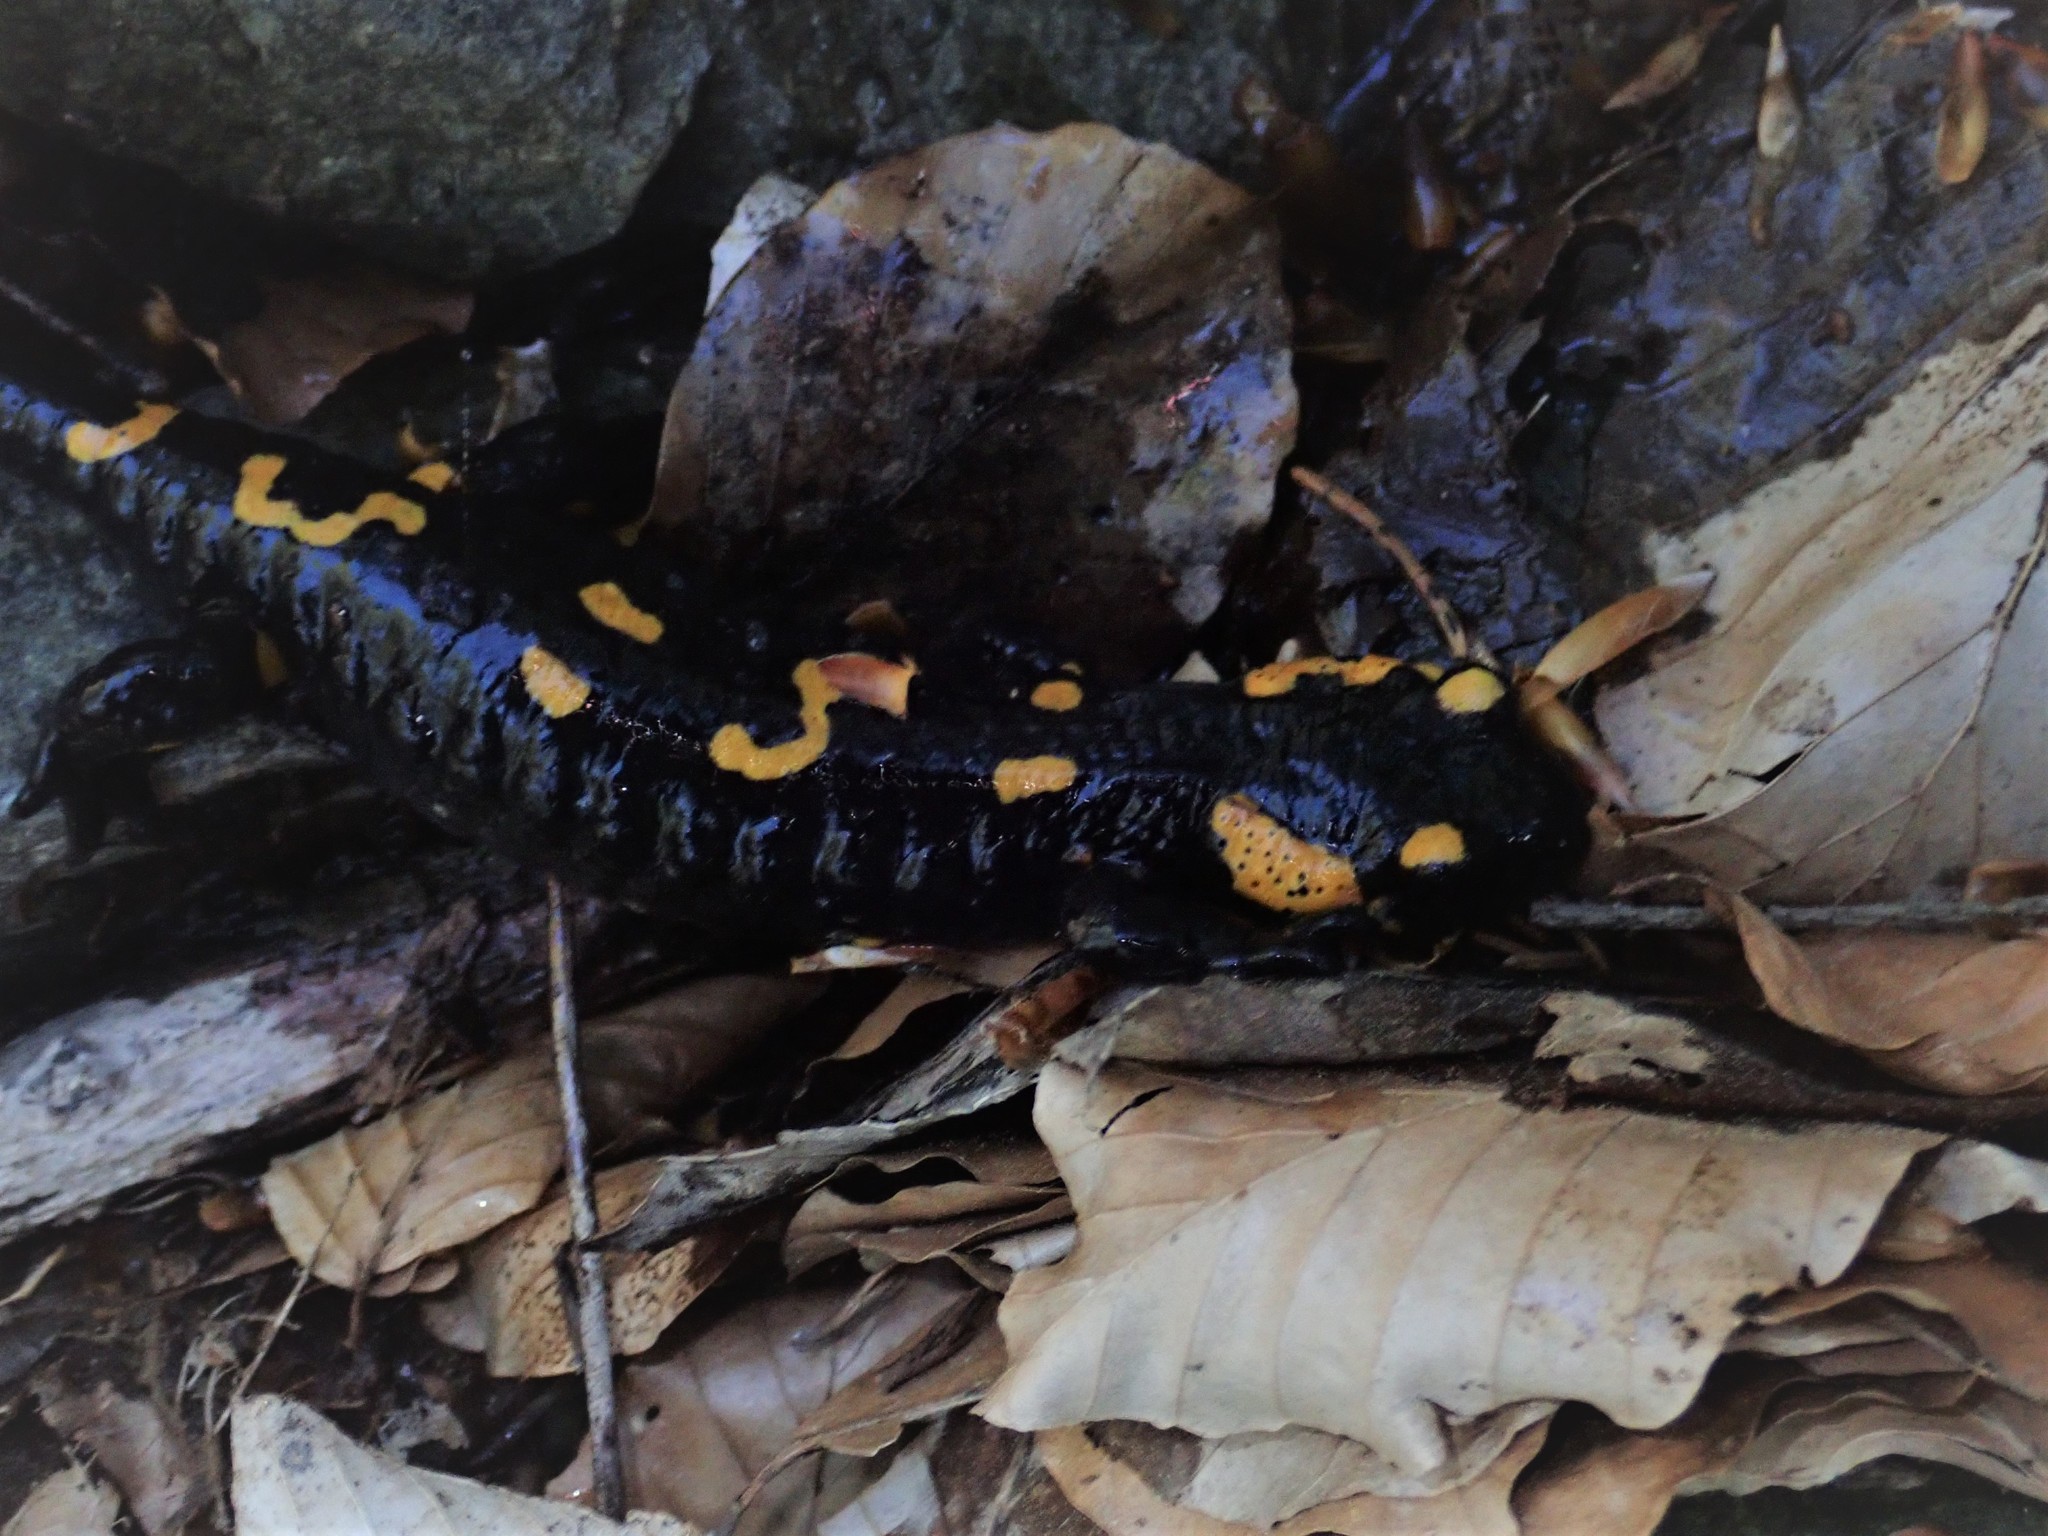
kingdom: Animalia
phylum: Chordata
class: Amphibia
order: Caudata
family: Salamandridae
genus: Salamandra
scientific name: Salamandra salamandra
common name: Fire salamander
